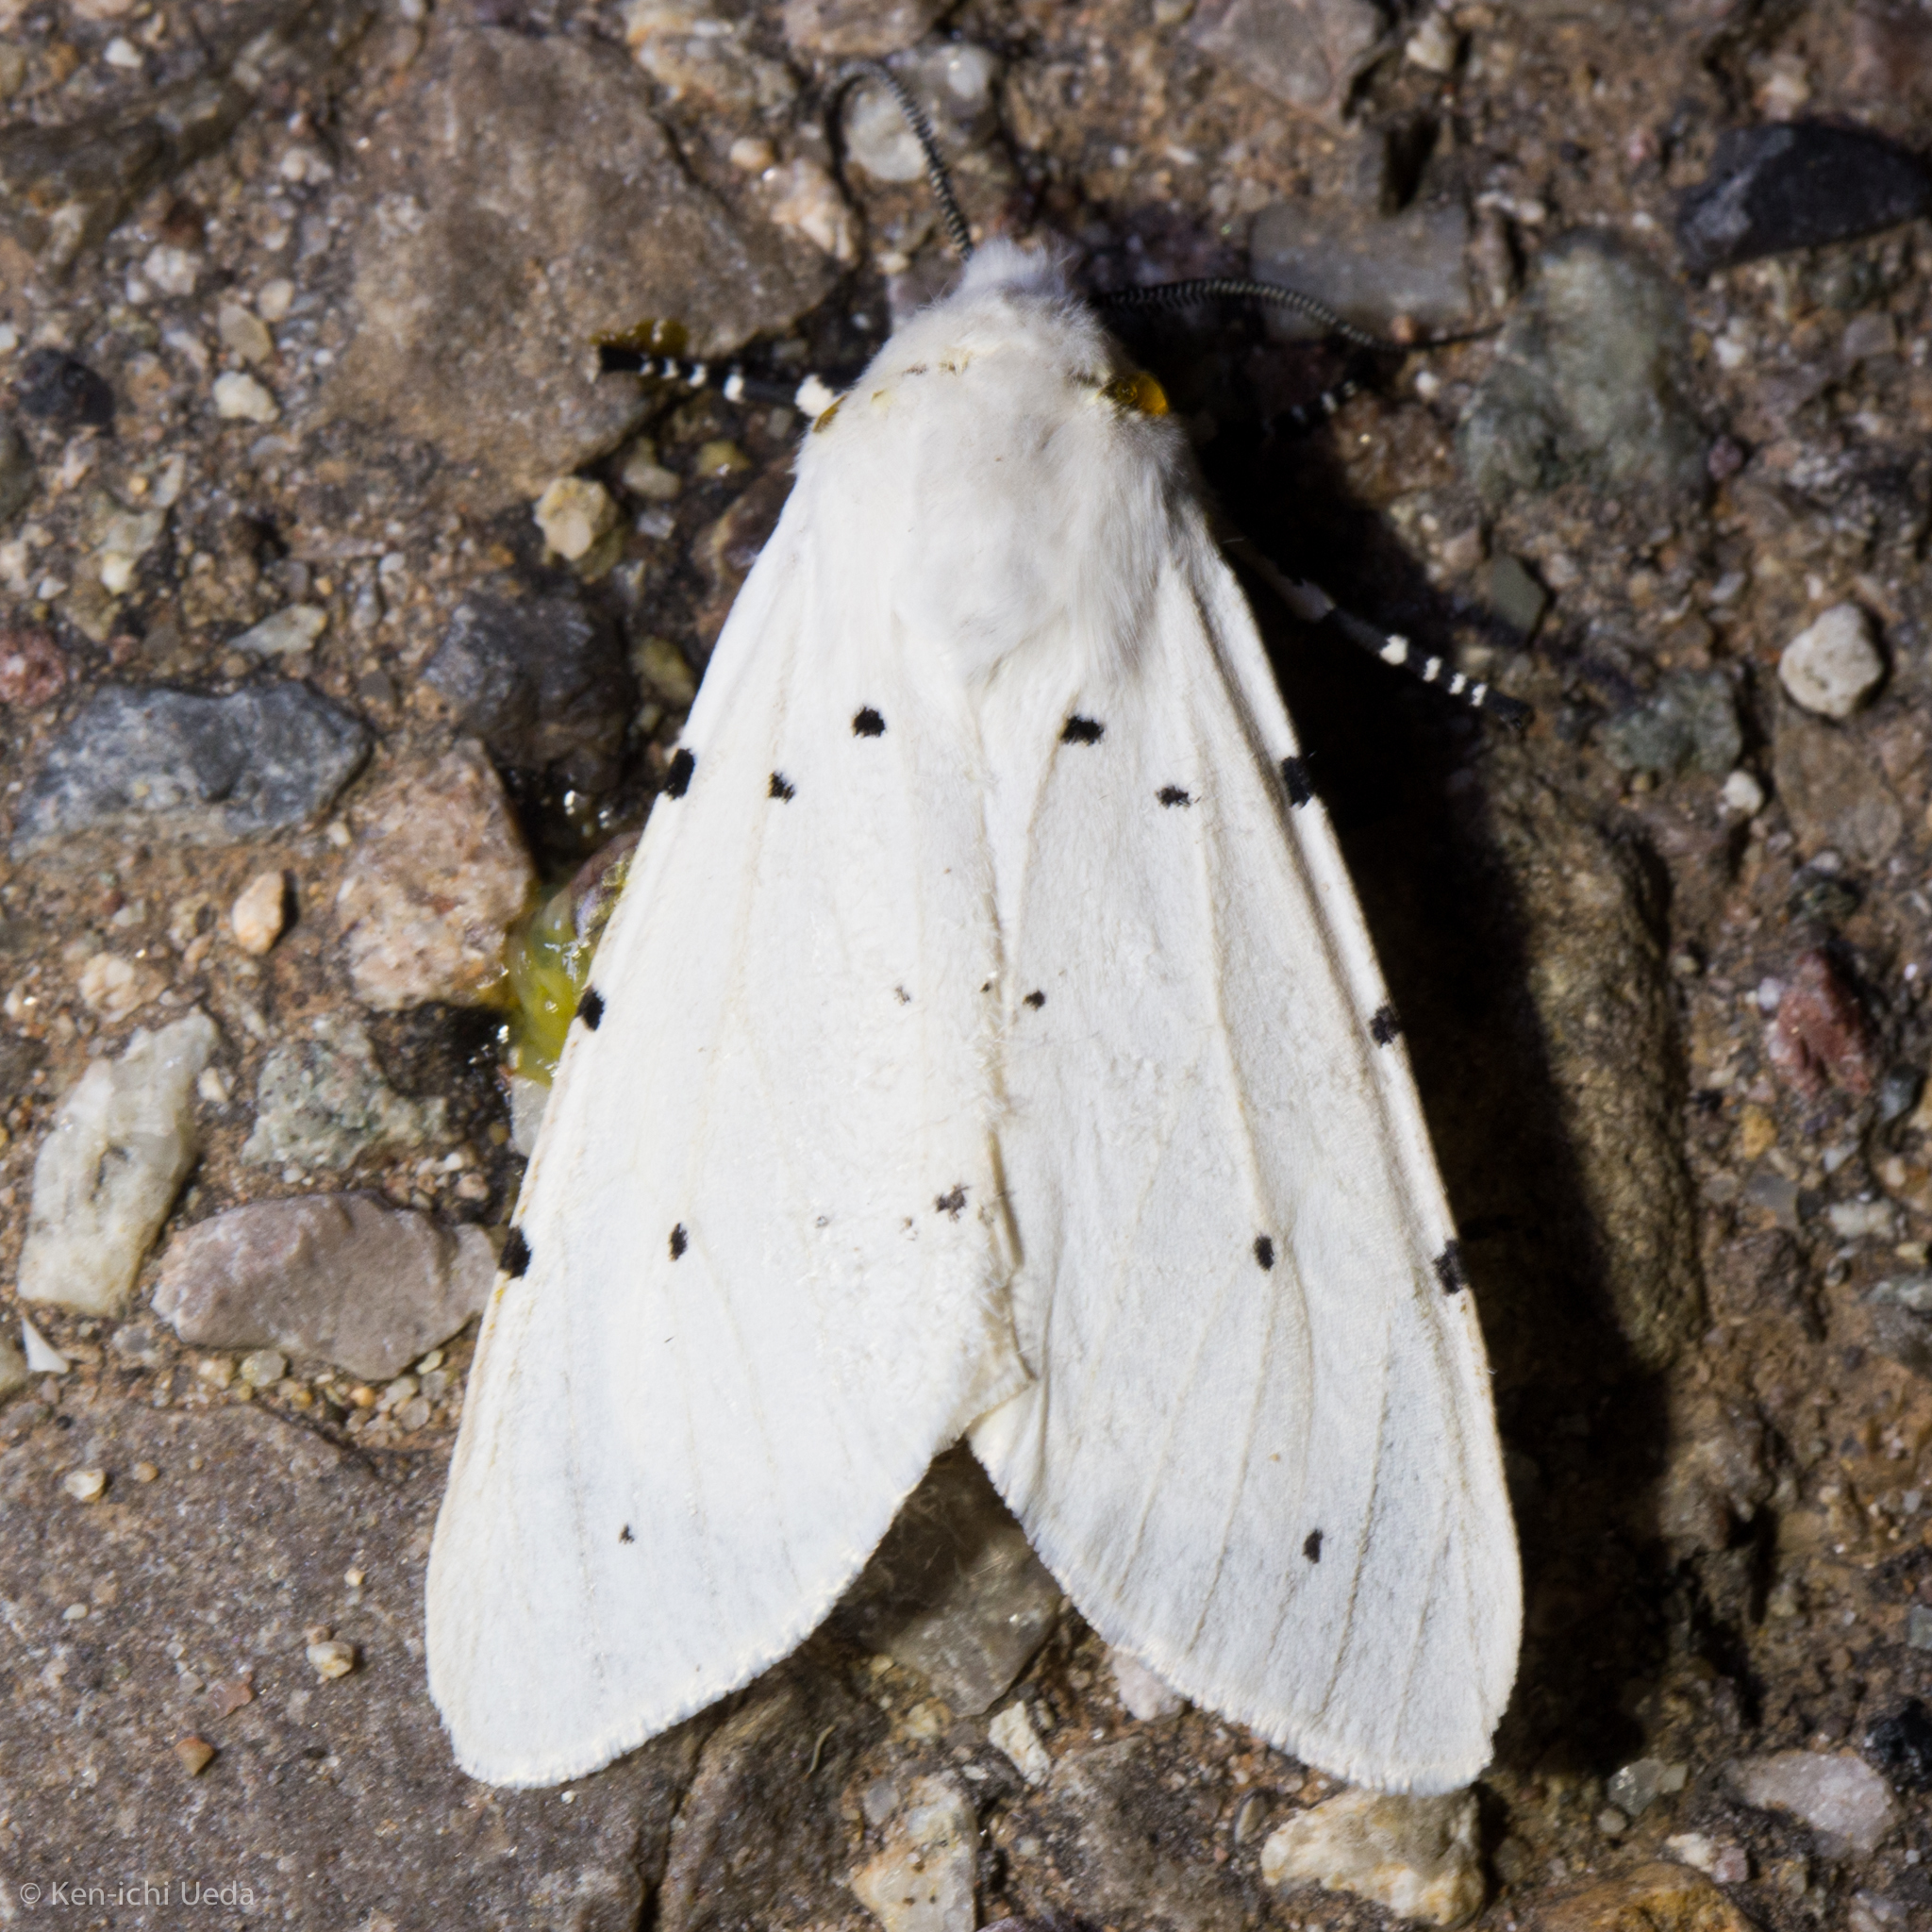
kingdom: Animalia
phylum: Arthropoda
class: Insecta
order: Lepidoptera
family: Erebidae
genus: Estigmene
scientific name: Estigmene
